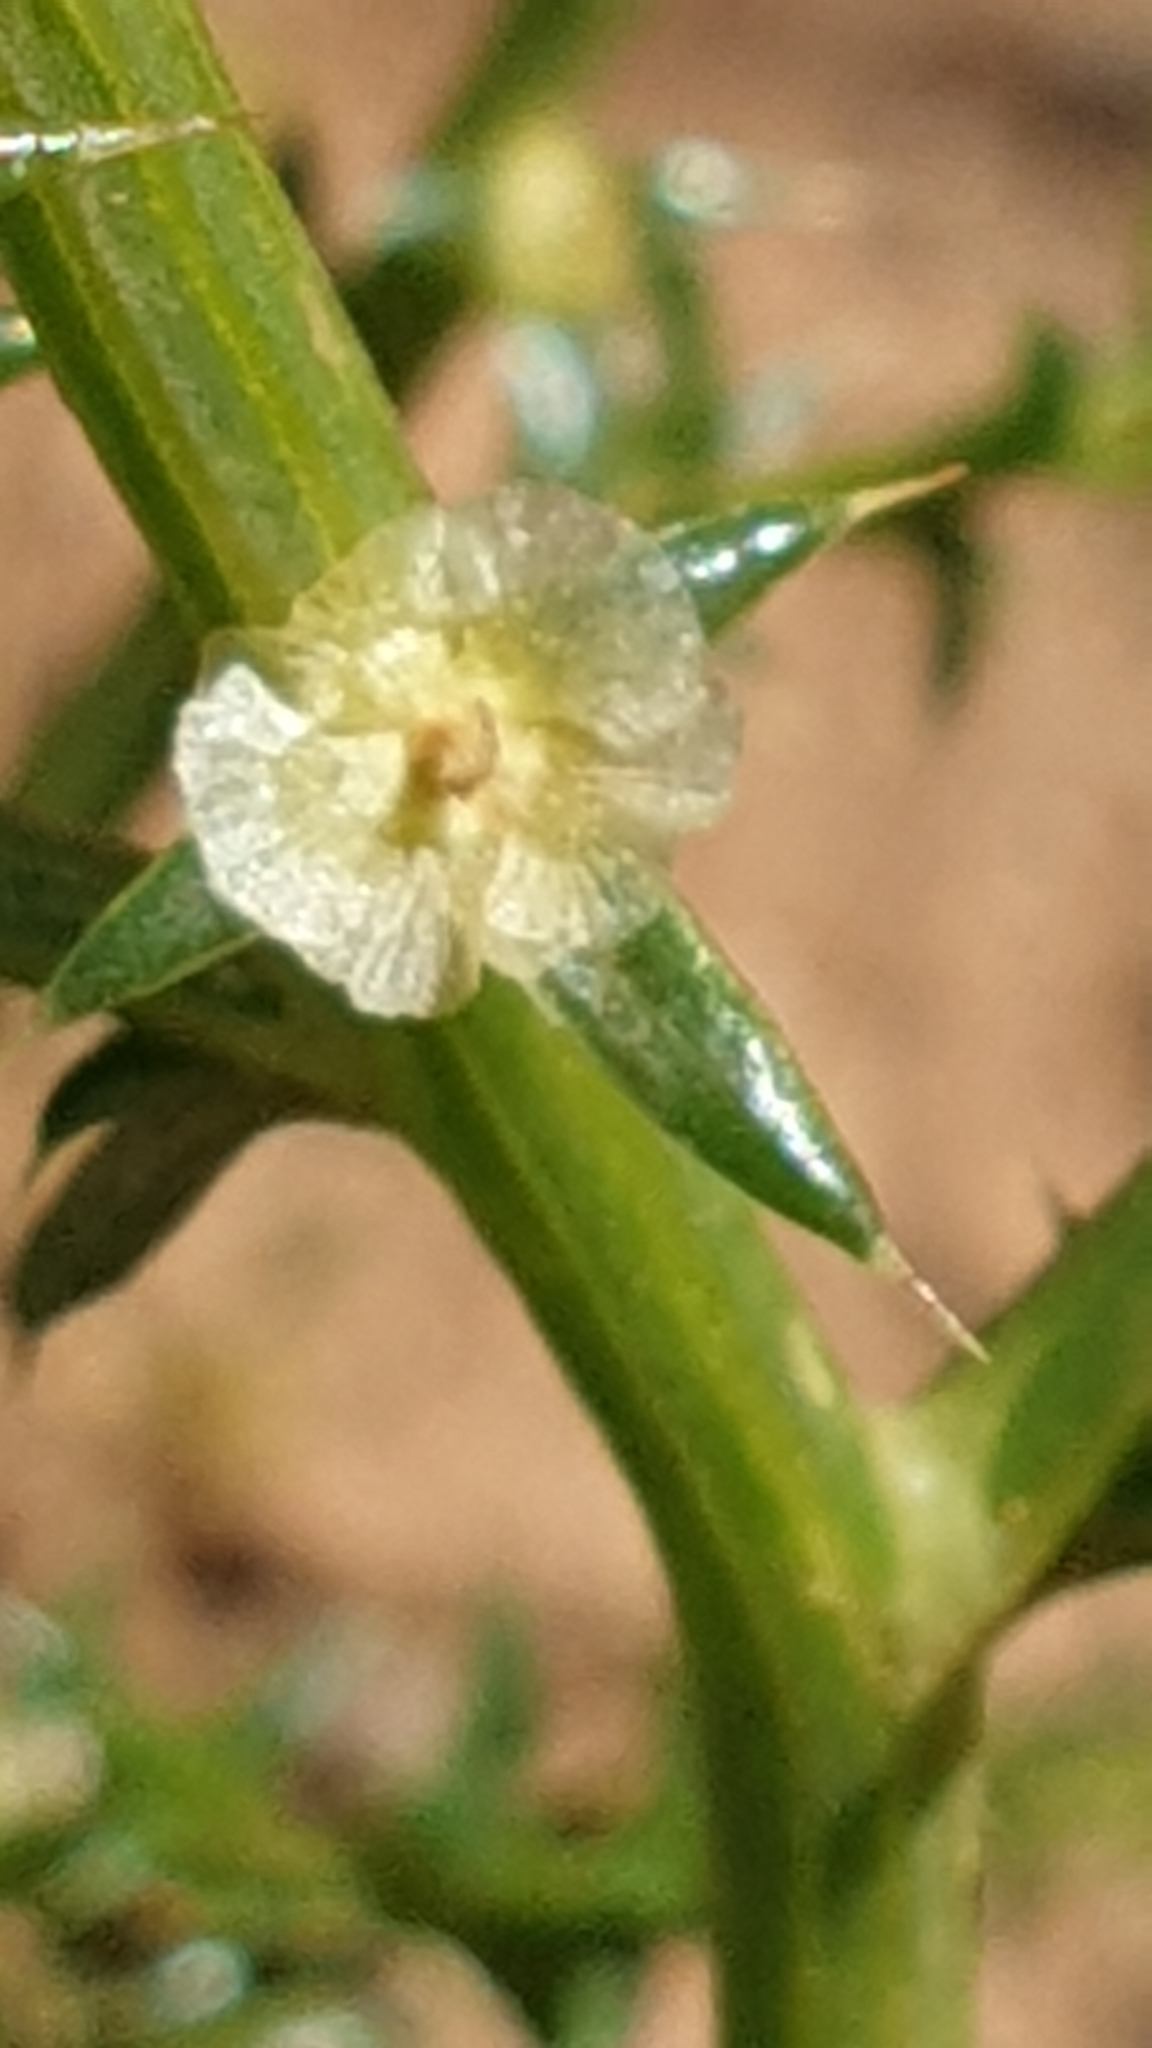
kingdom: Plantae
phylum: Tracheophyta
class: Magnoliopsida
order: Caryophyllales
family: Amaranthaceae
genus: Salsola
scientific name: Salsola australis
